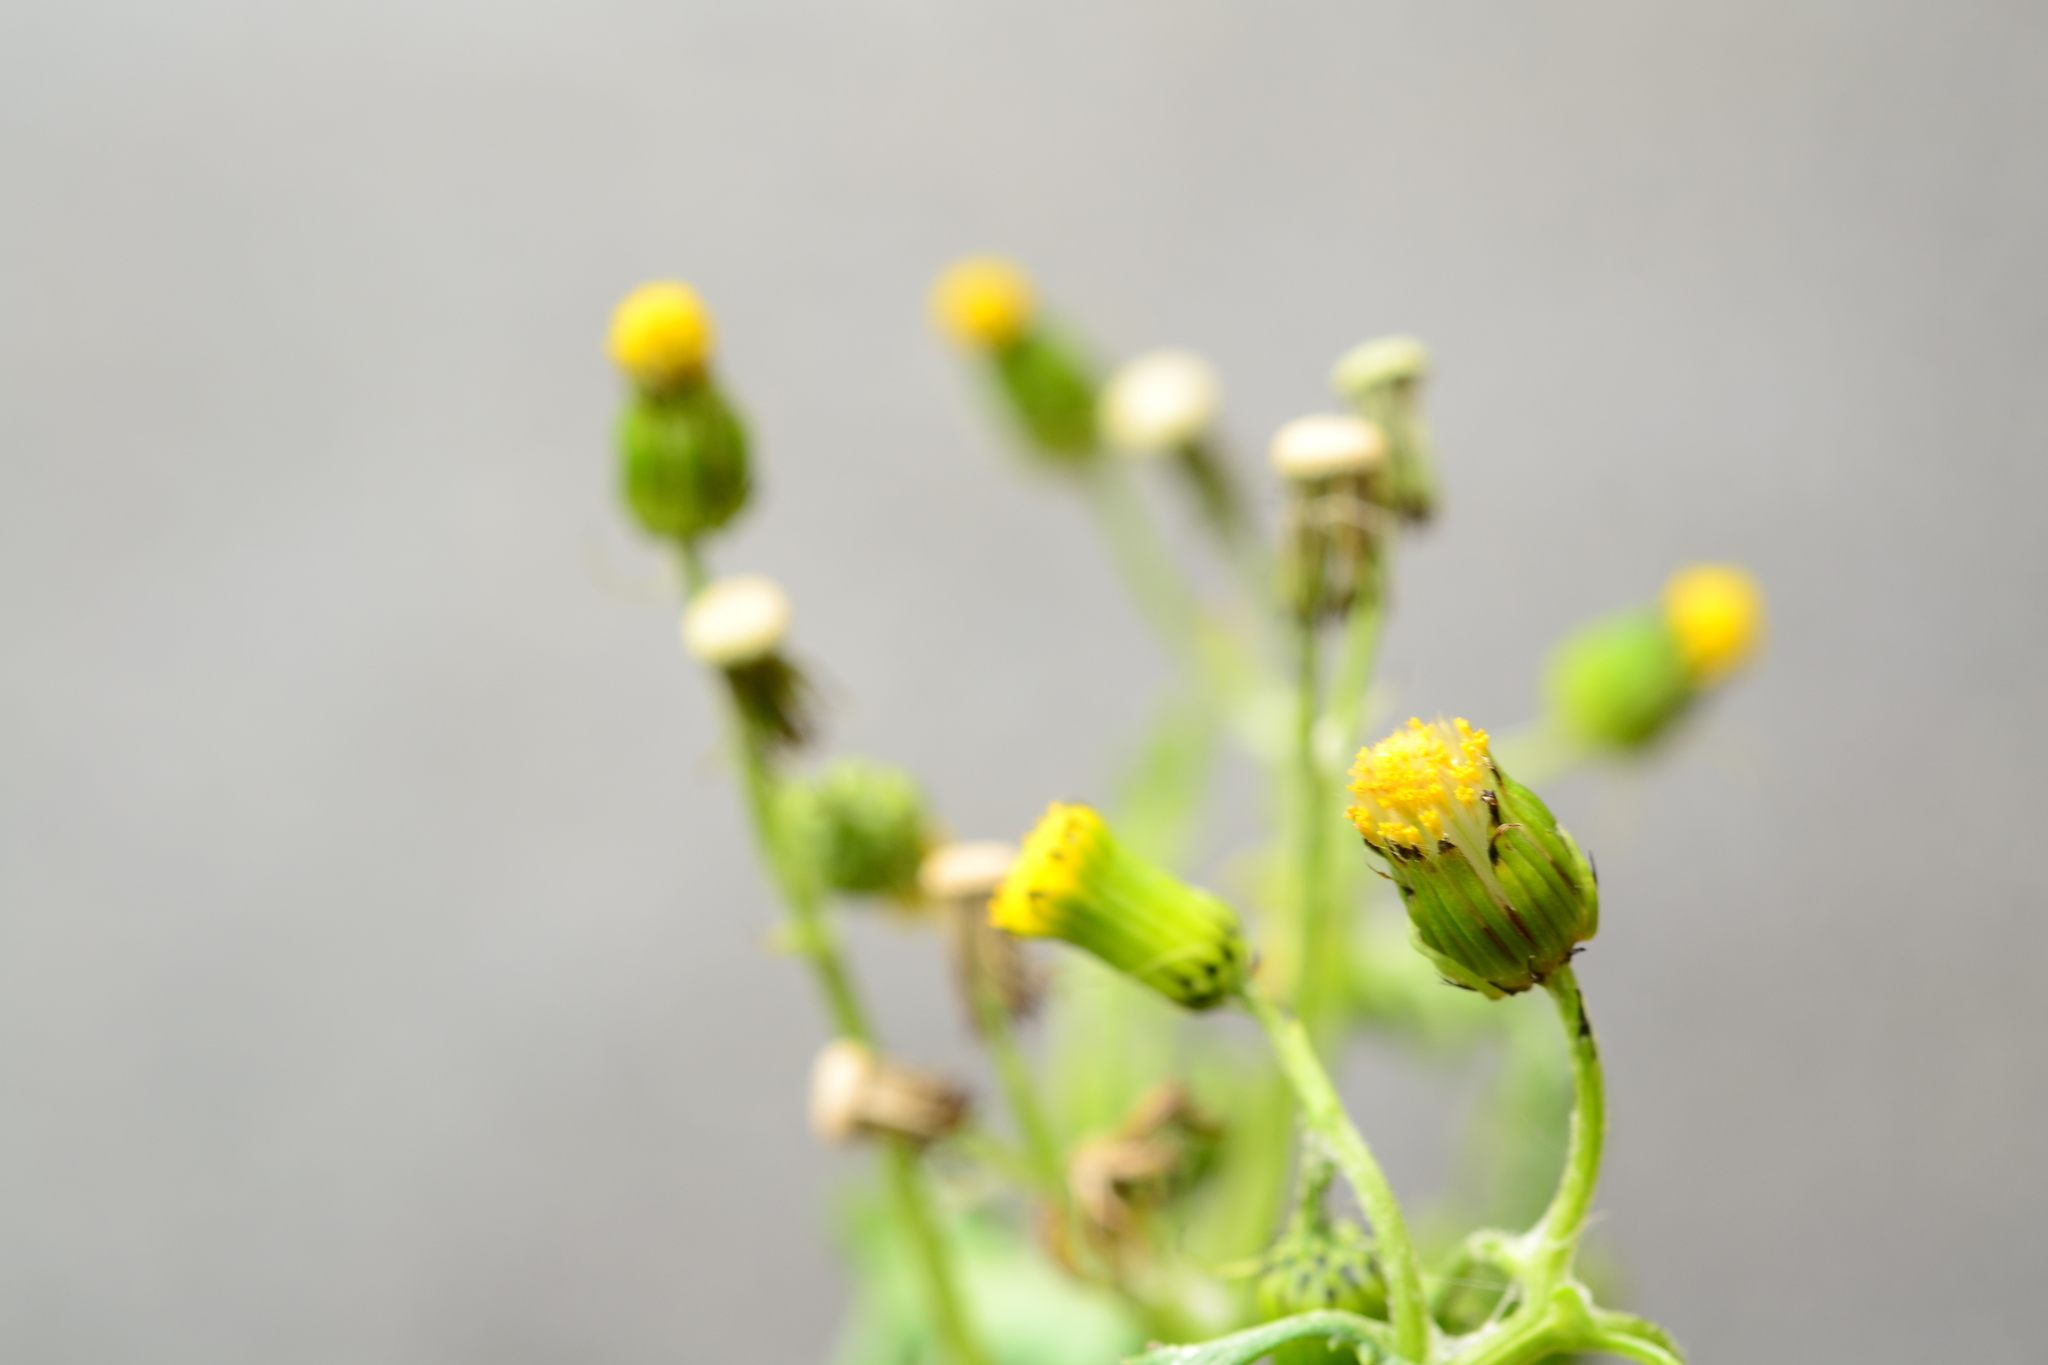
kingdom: Fungi
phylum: Basidiomycota
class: Pucciniomycetes
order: Pucciniales
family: Pucciniaceae
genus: Puccinia
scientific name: Puccinia lagenophorae
